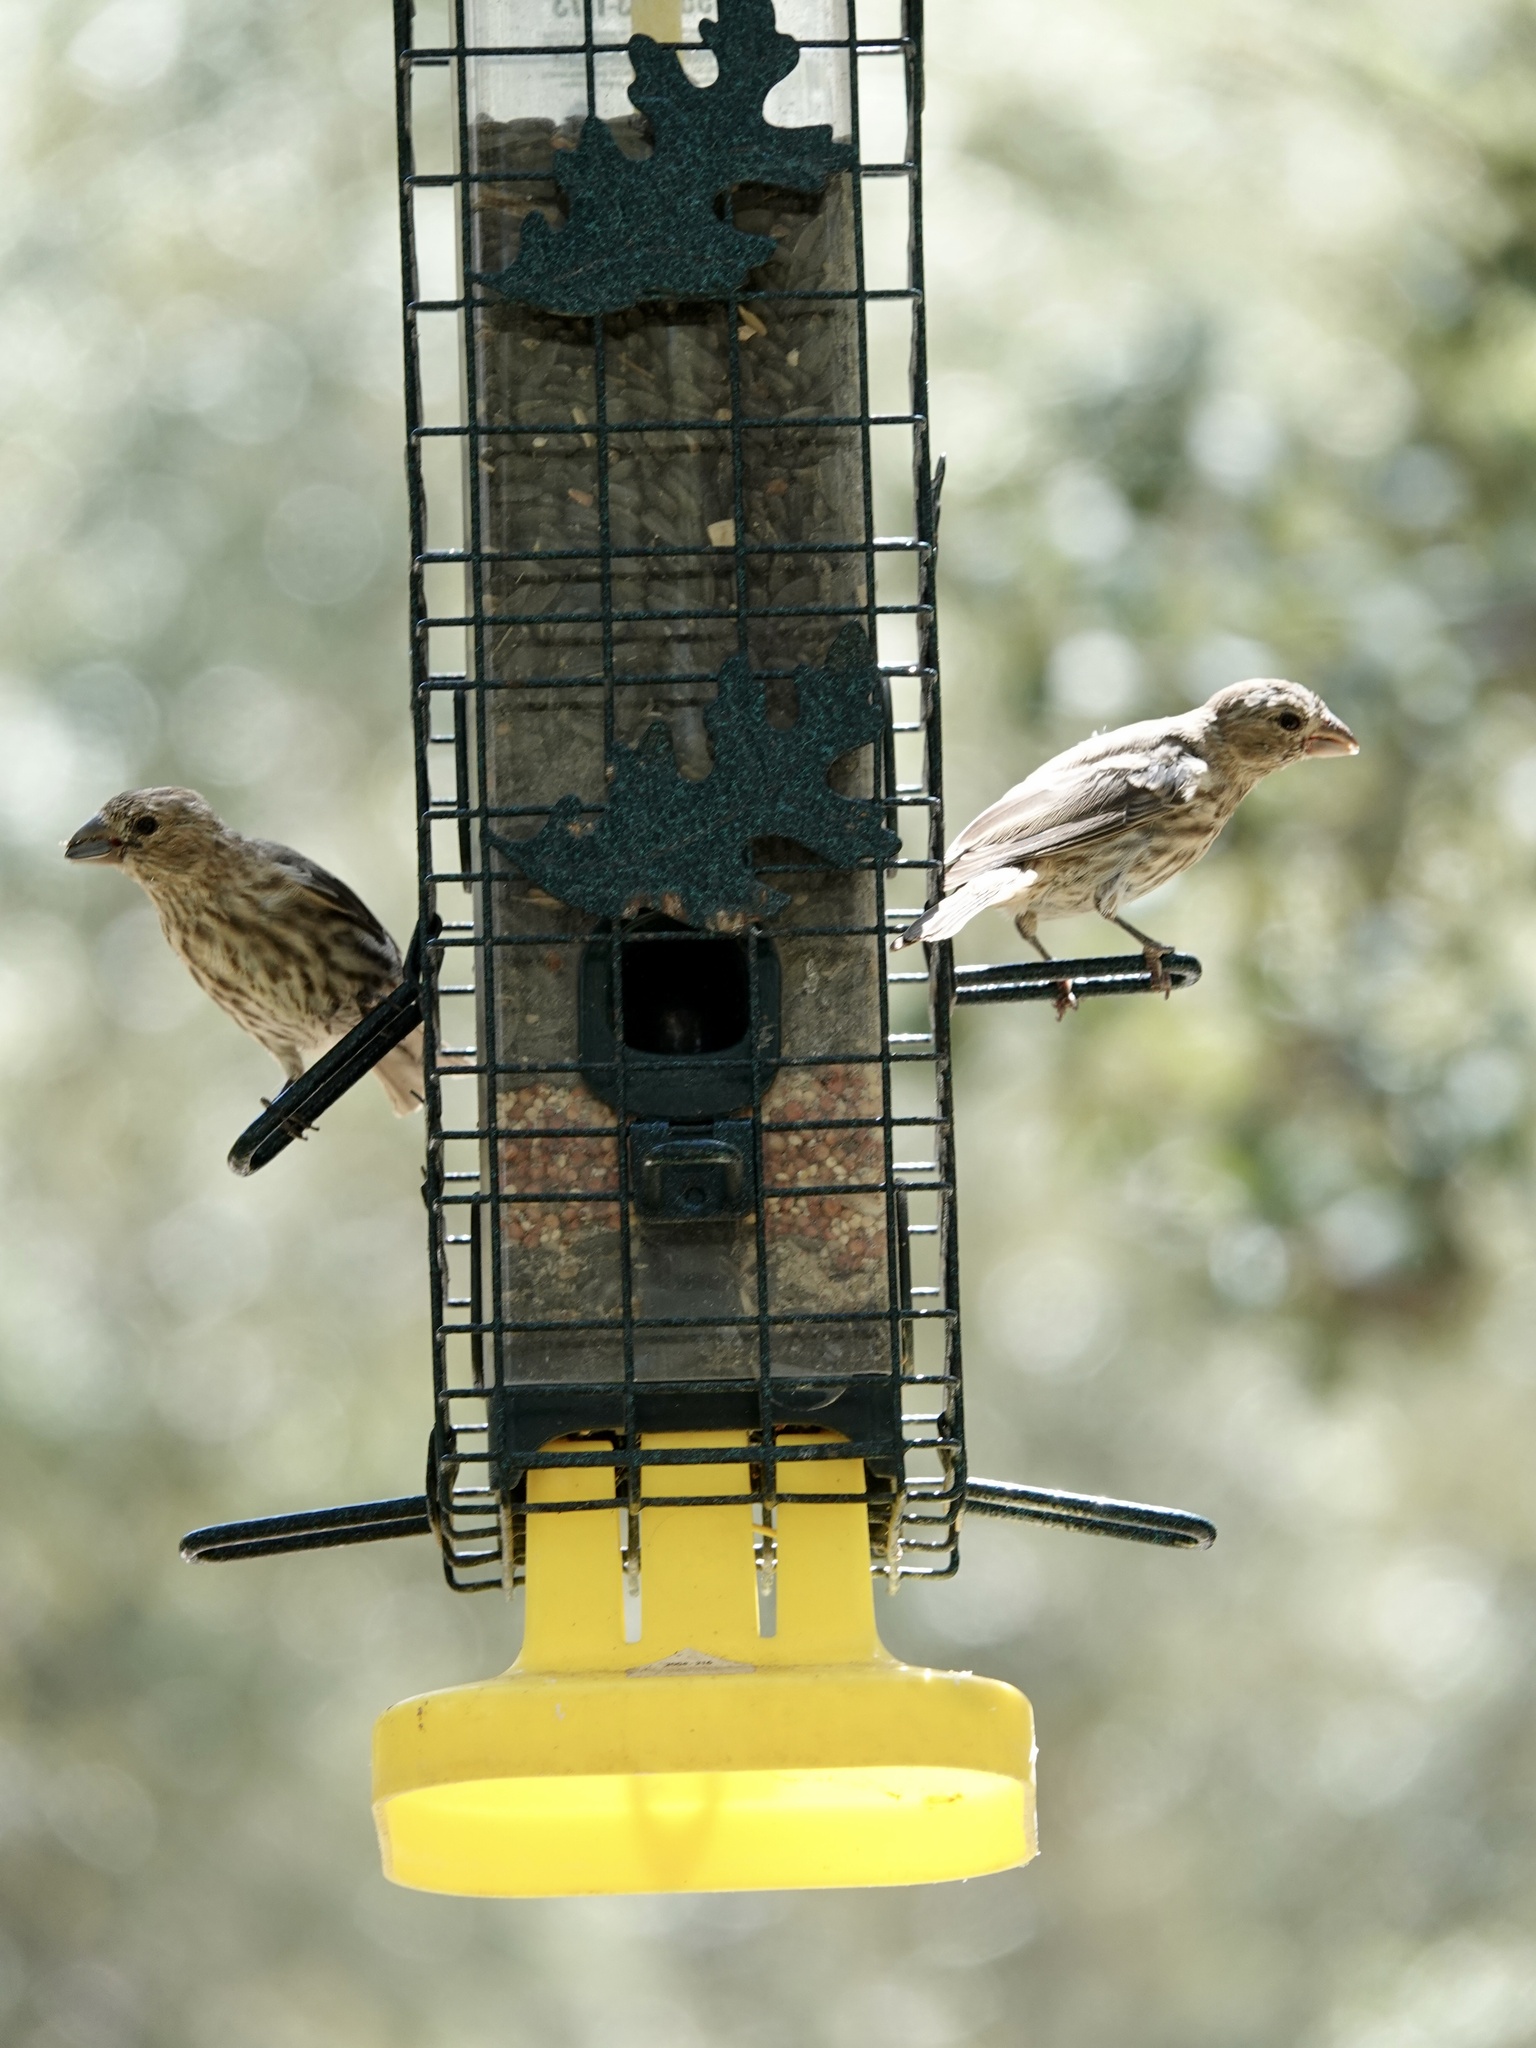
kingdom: Animalia
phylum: Chordata
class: Aves
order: Passeriformes
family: Fringillidae
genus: Haemorhous
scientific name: Haemorhous mexicanus
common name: House finch
